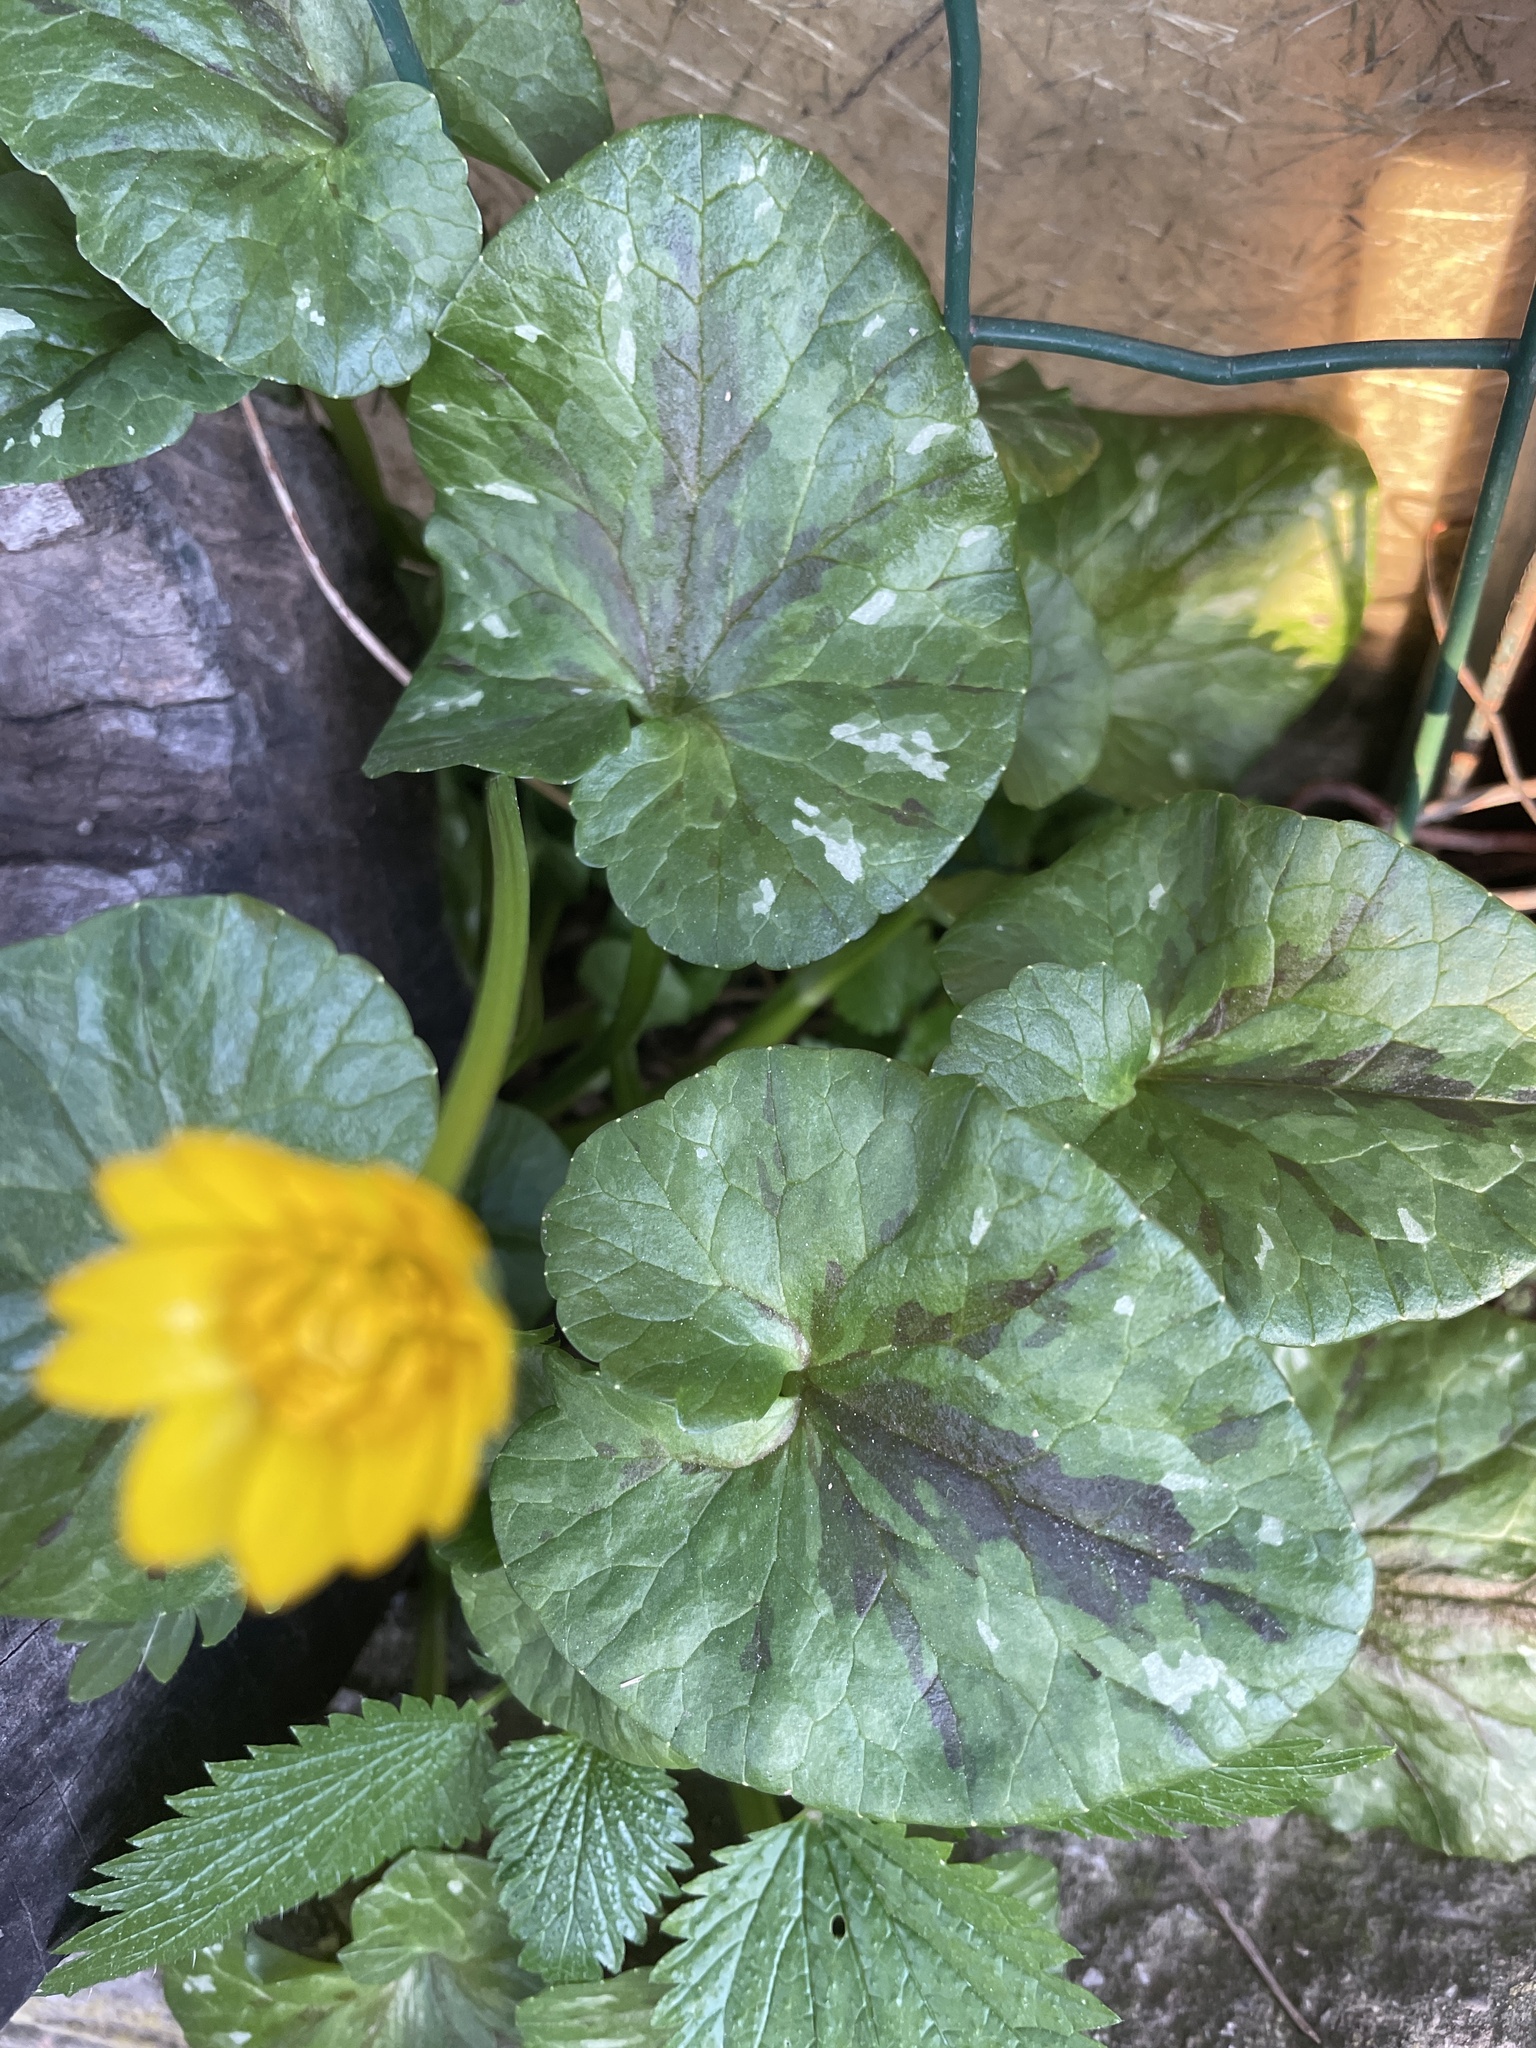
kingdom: Plantae
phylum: Tracheophyta
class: Magnoliopsida
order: Ranunculales
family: Ranunculaceae
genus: Ficaria
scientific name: Ficaria verna
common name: Lesser celandine
